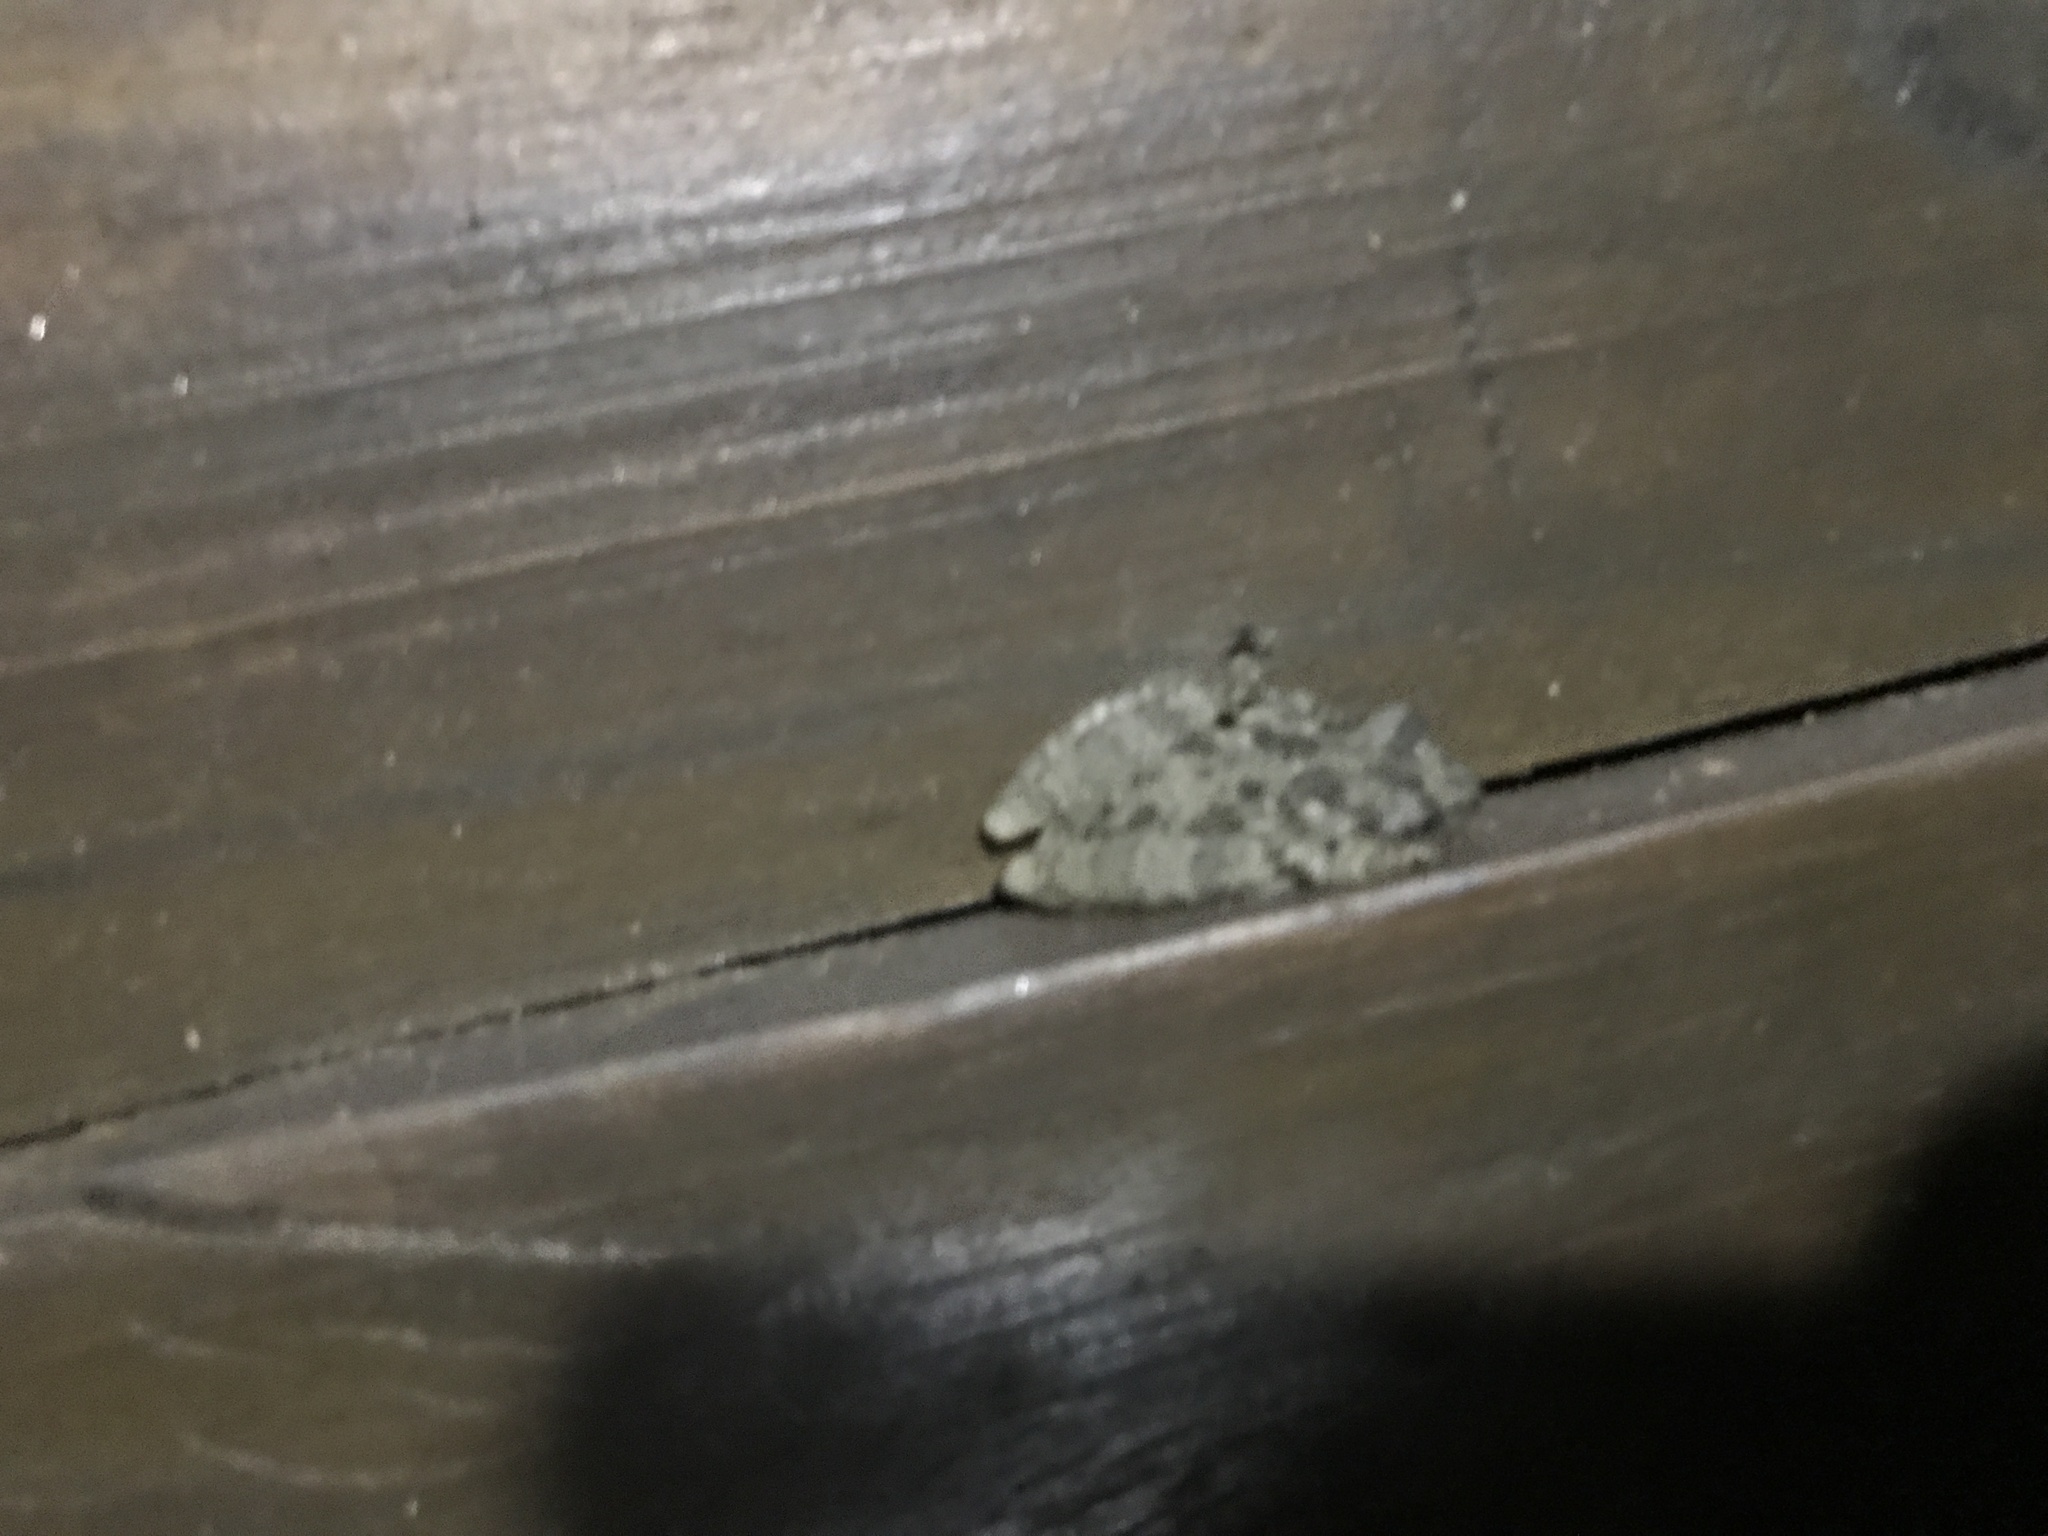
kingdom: Animalia
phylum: Chordata
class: Amphibia
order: Anura
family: Hylidae
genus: Scinax
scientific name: Scinax granulatus
